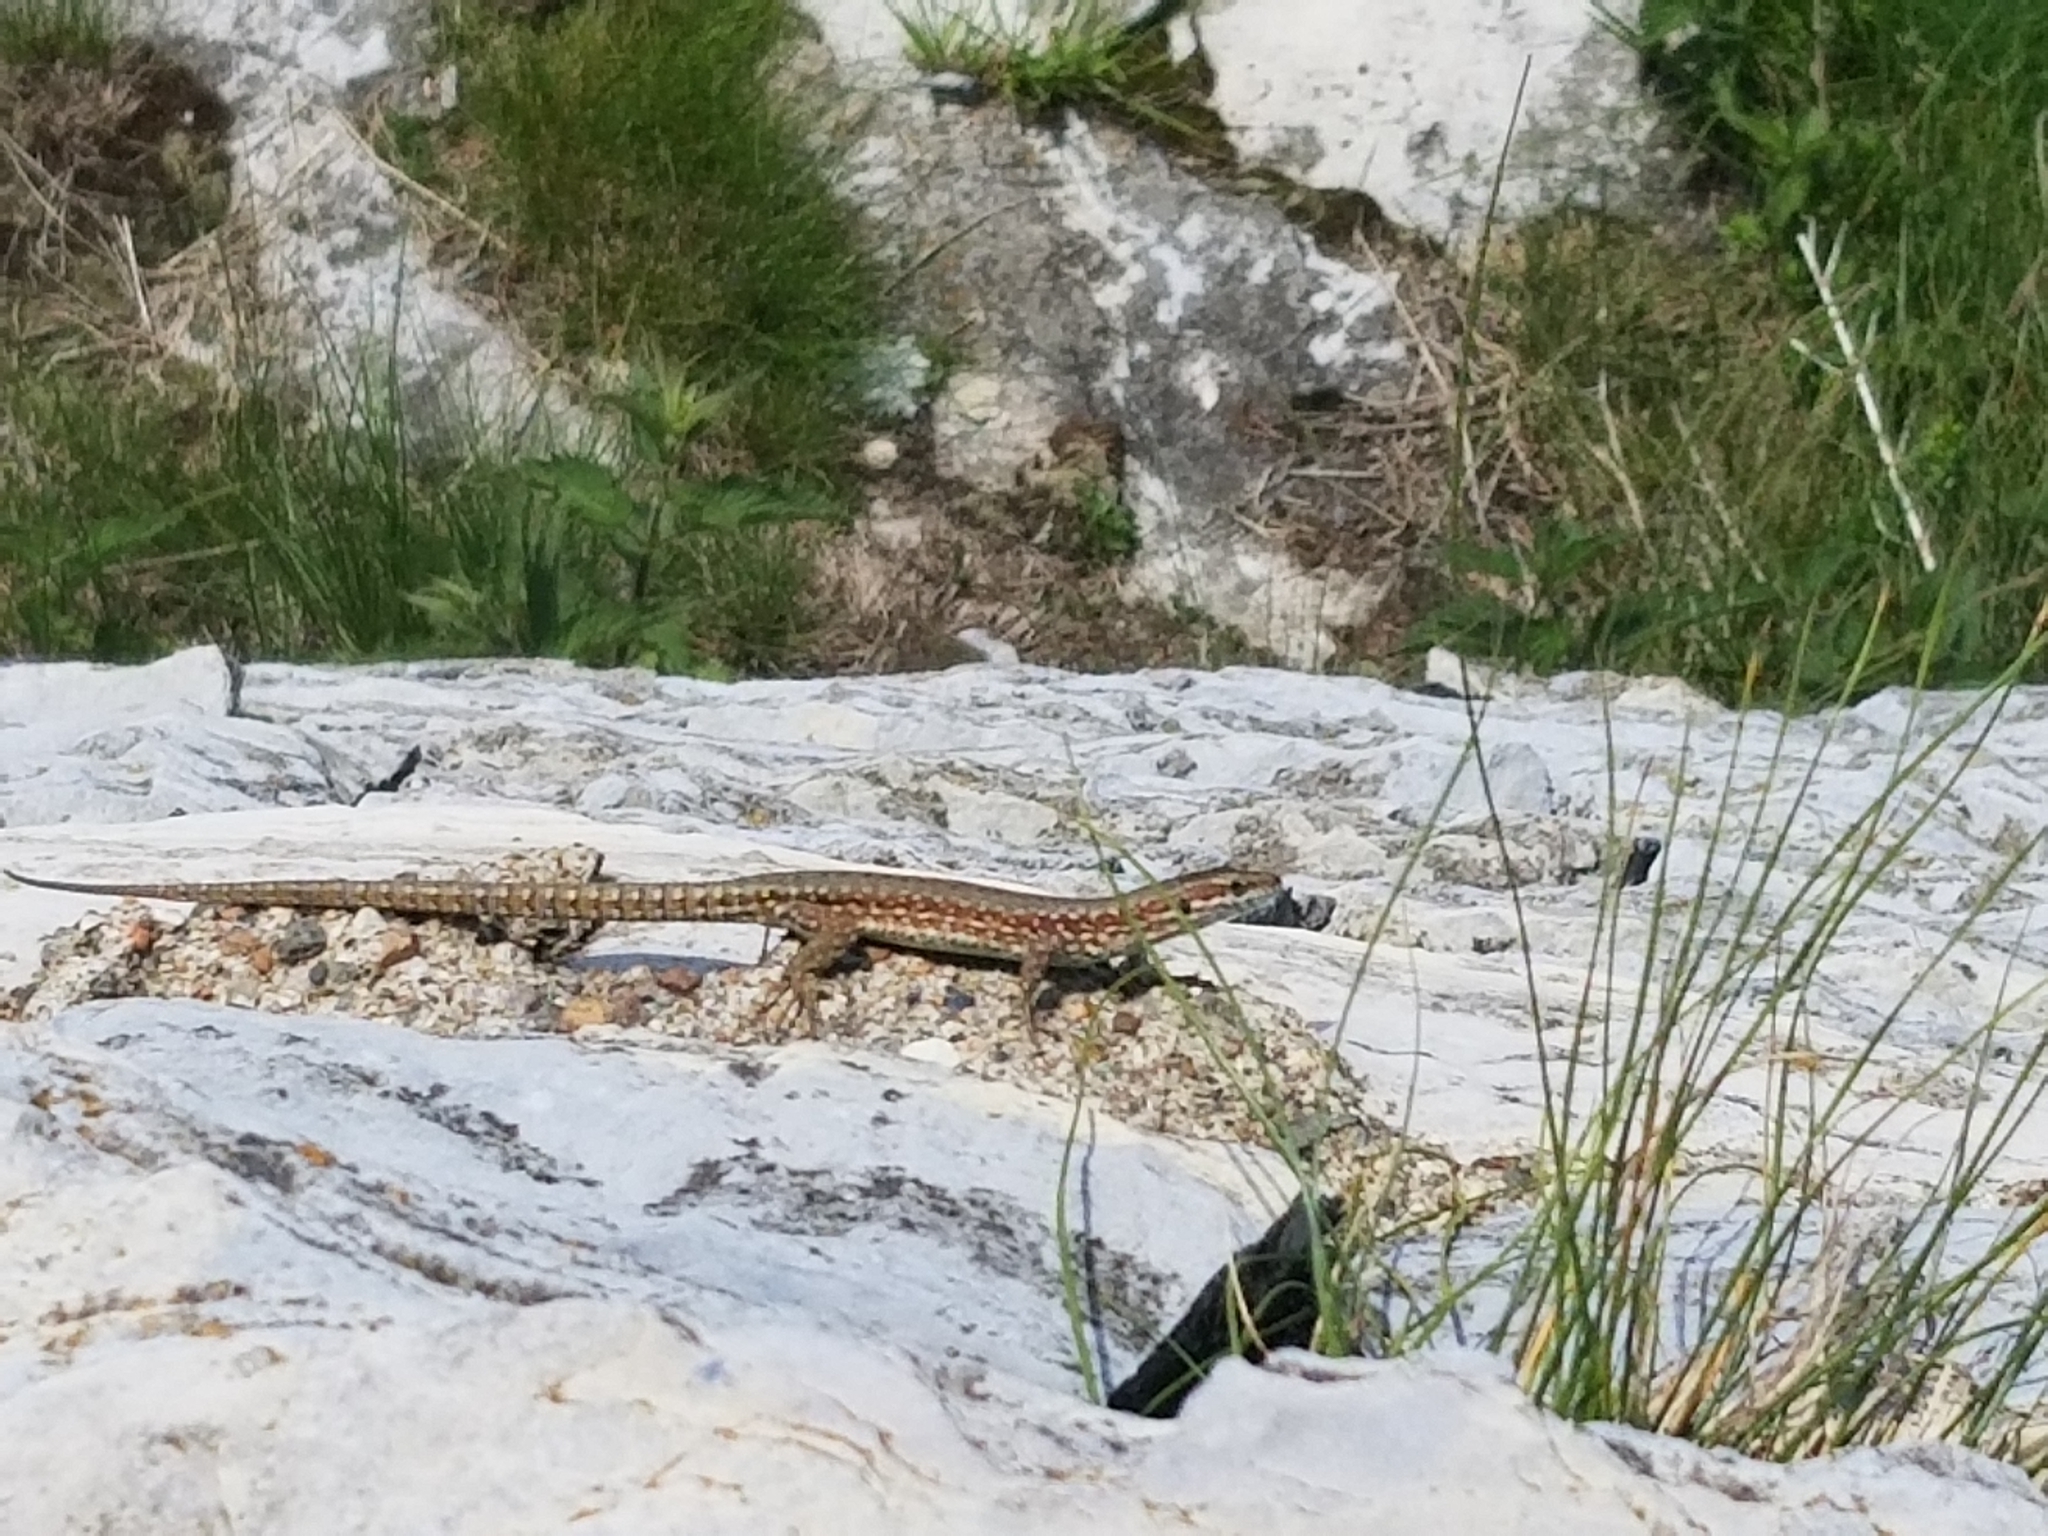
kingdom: Animalia
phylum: Chordata
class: Squamata
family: Lacertidae
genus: Podarcis
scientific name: Podarcis muralis
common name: Common wall lizard
